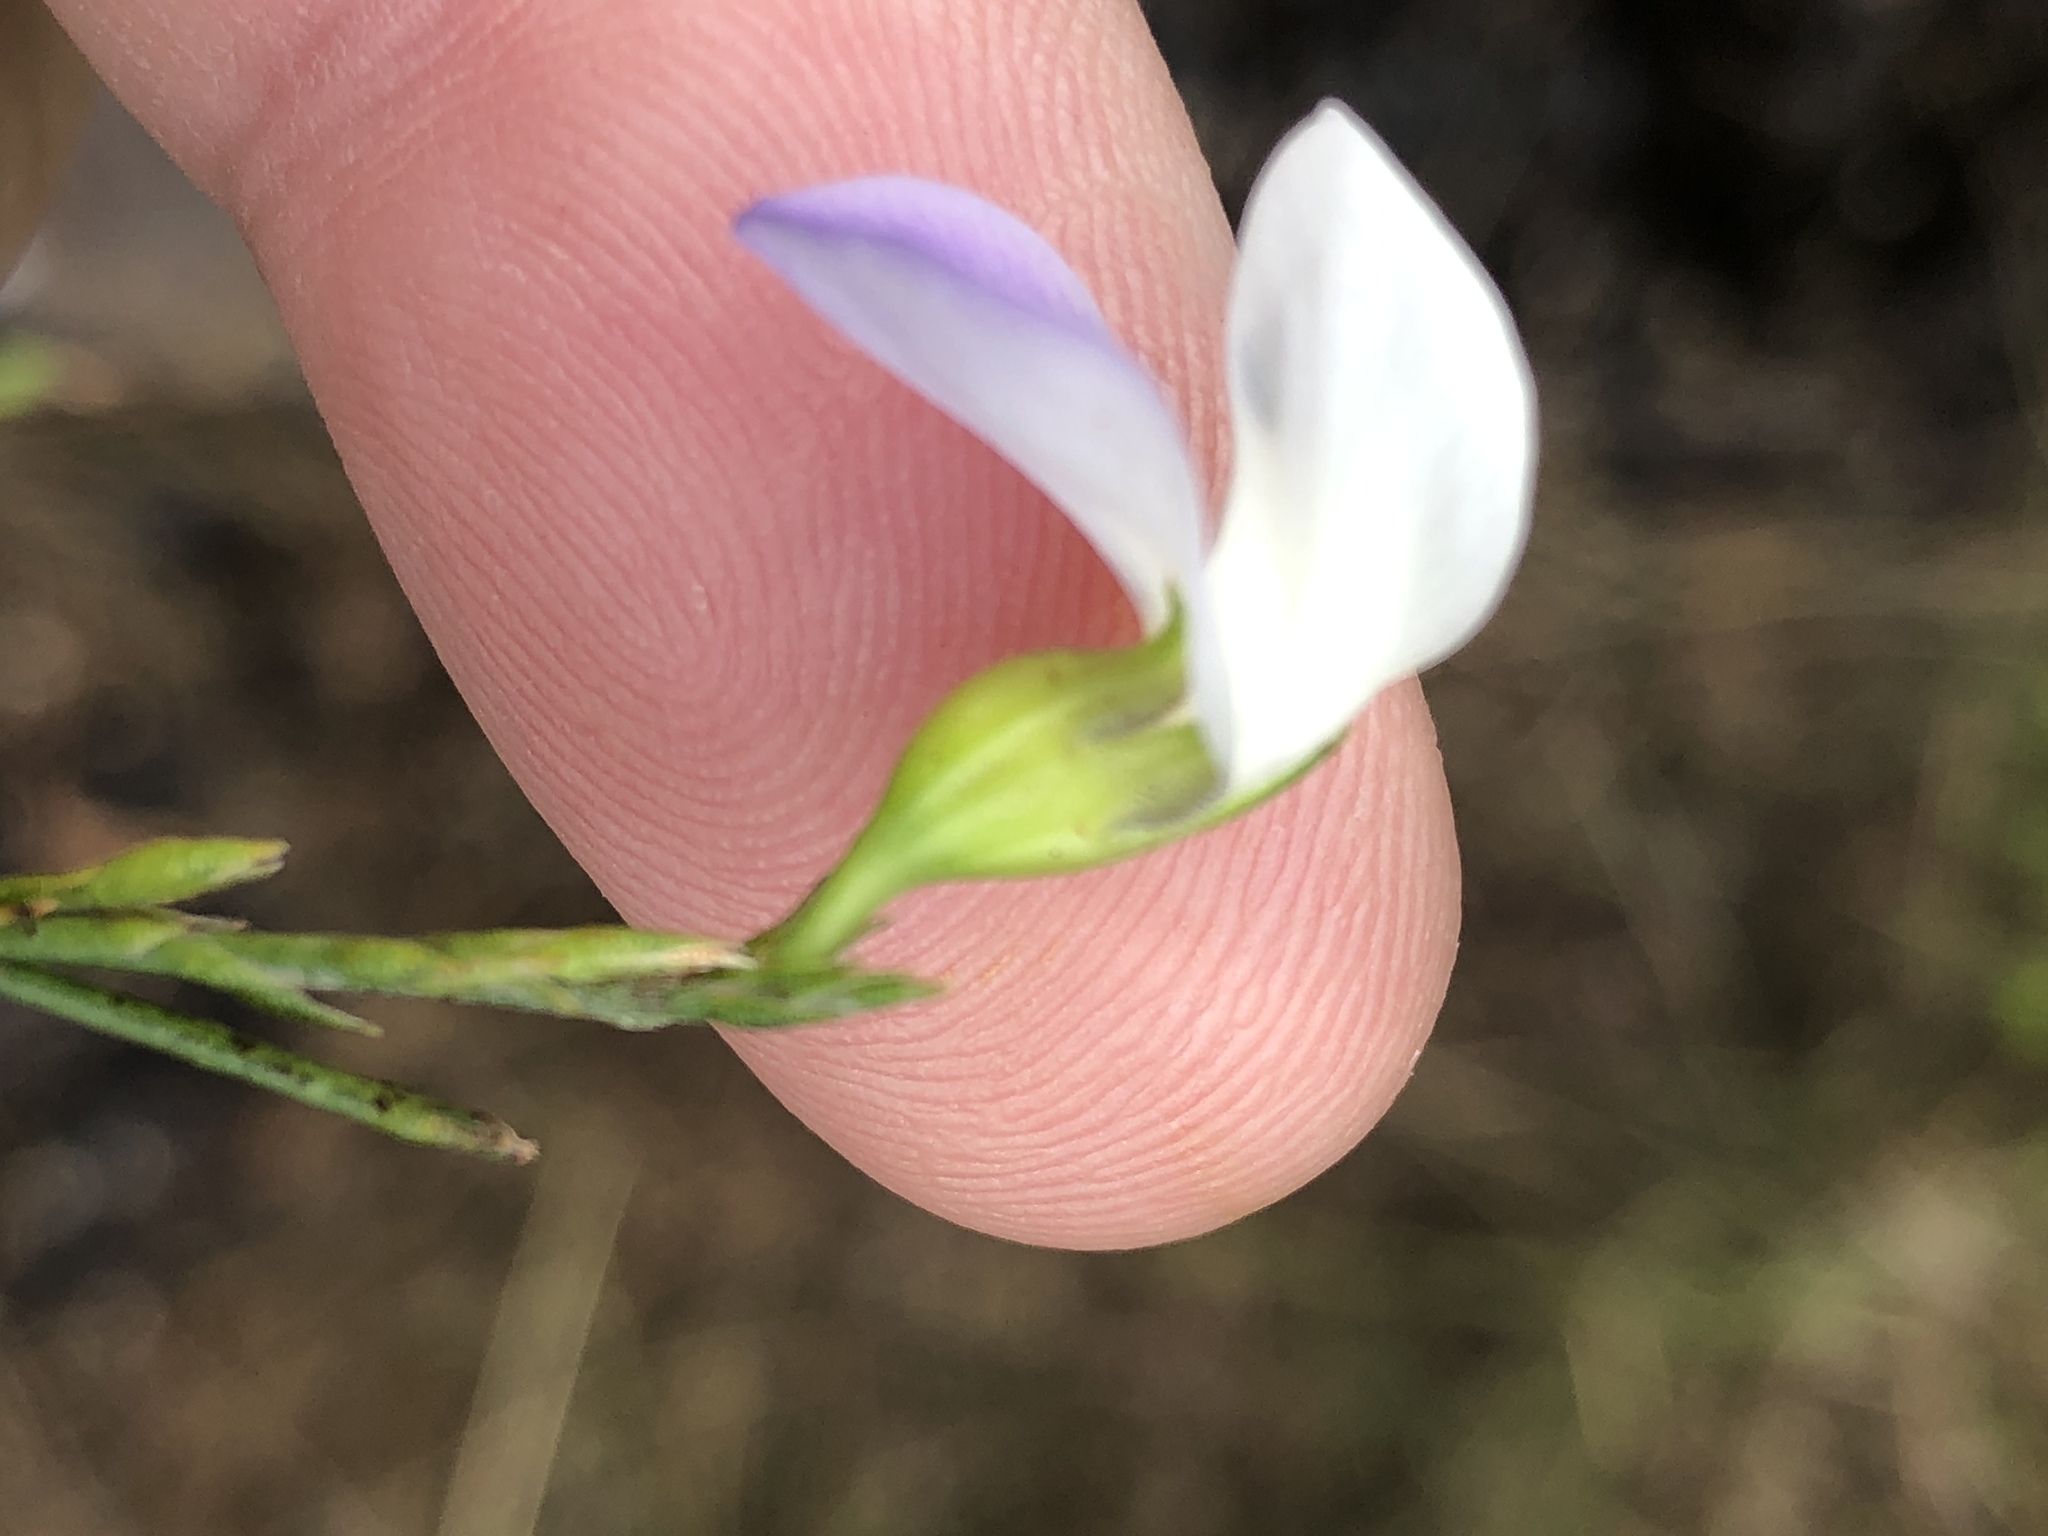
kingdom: Plantae
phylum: Tracheophyta
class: Magnoliopsida
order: Fabales
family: Fabaceae
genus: Psoralea
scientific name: Psoralea usitata
